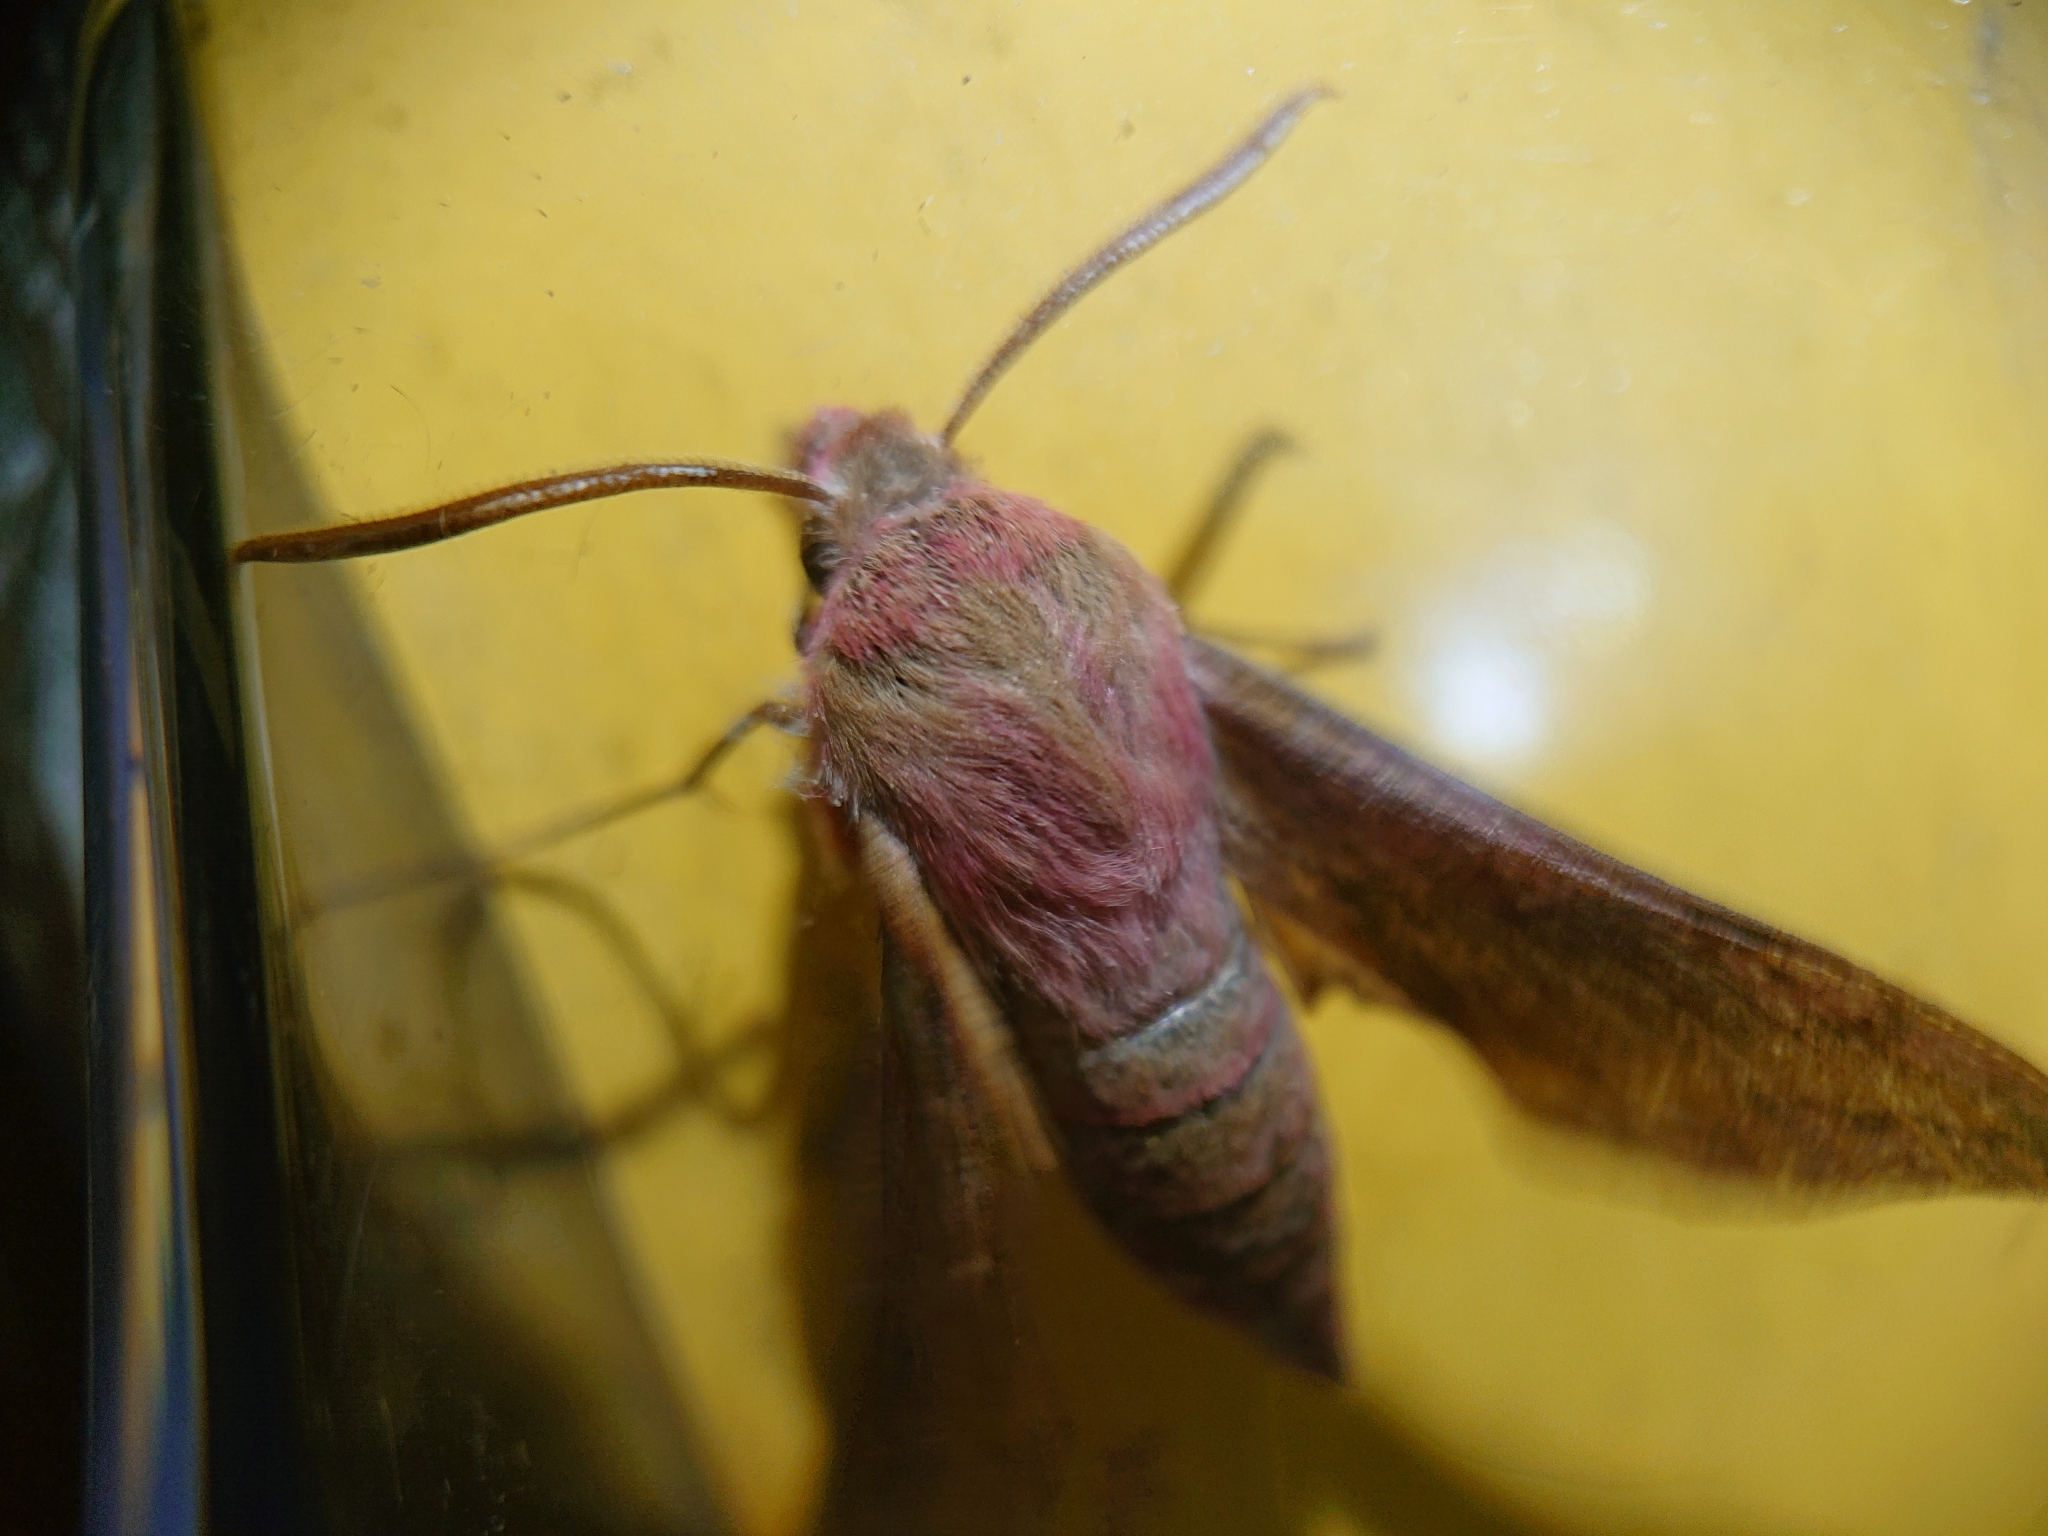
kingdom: Animalia
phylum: Arthropoda
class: Insecta
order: Lepidoptera
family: Sphingidae
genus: Deilephila
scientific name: Deilephila porcellus
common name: Small elephant hawk-moth
